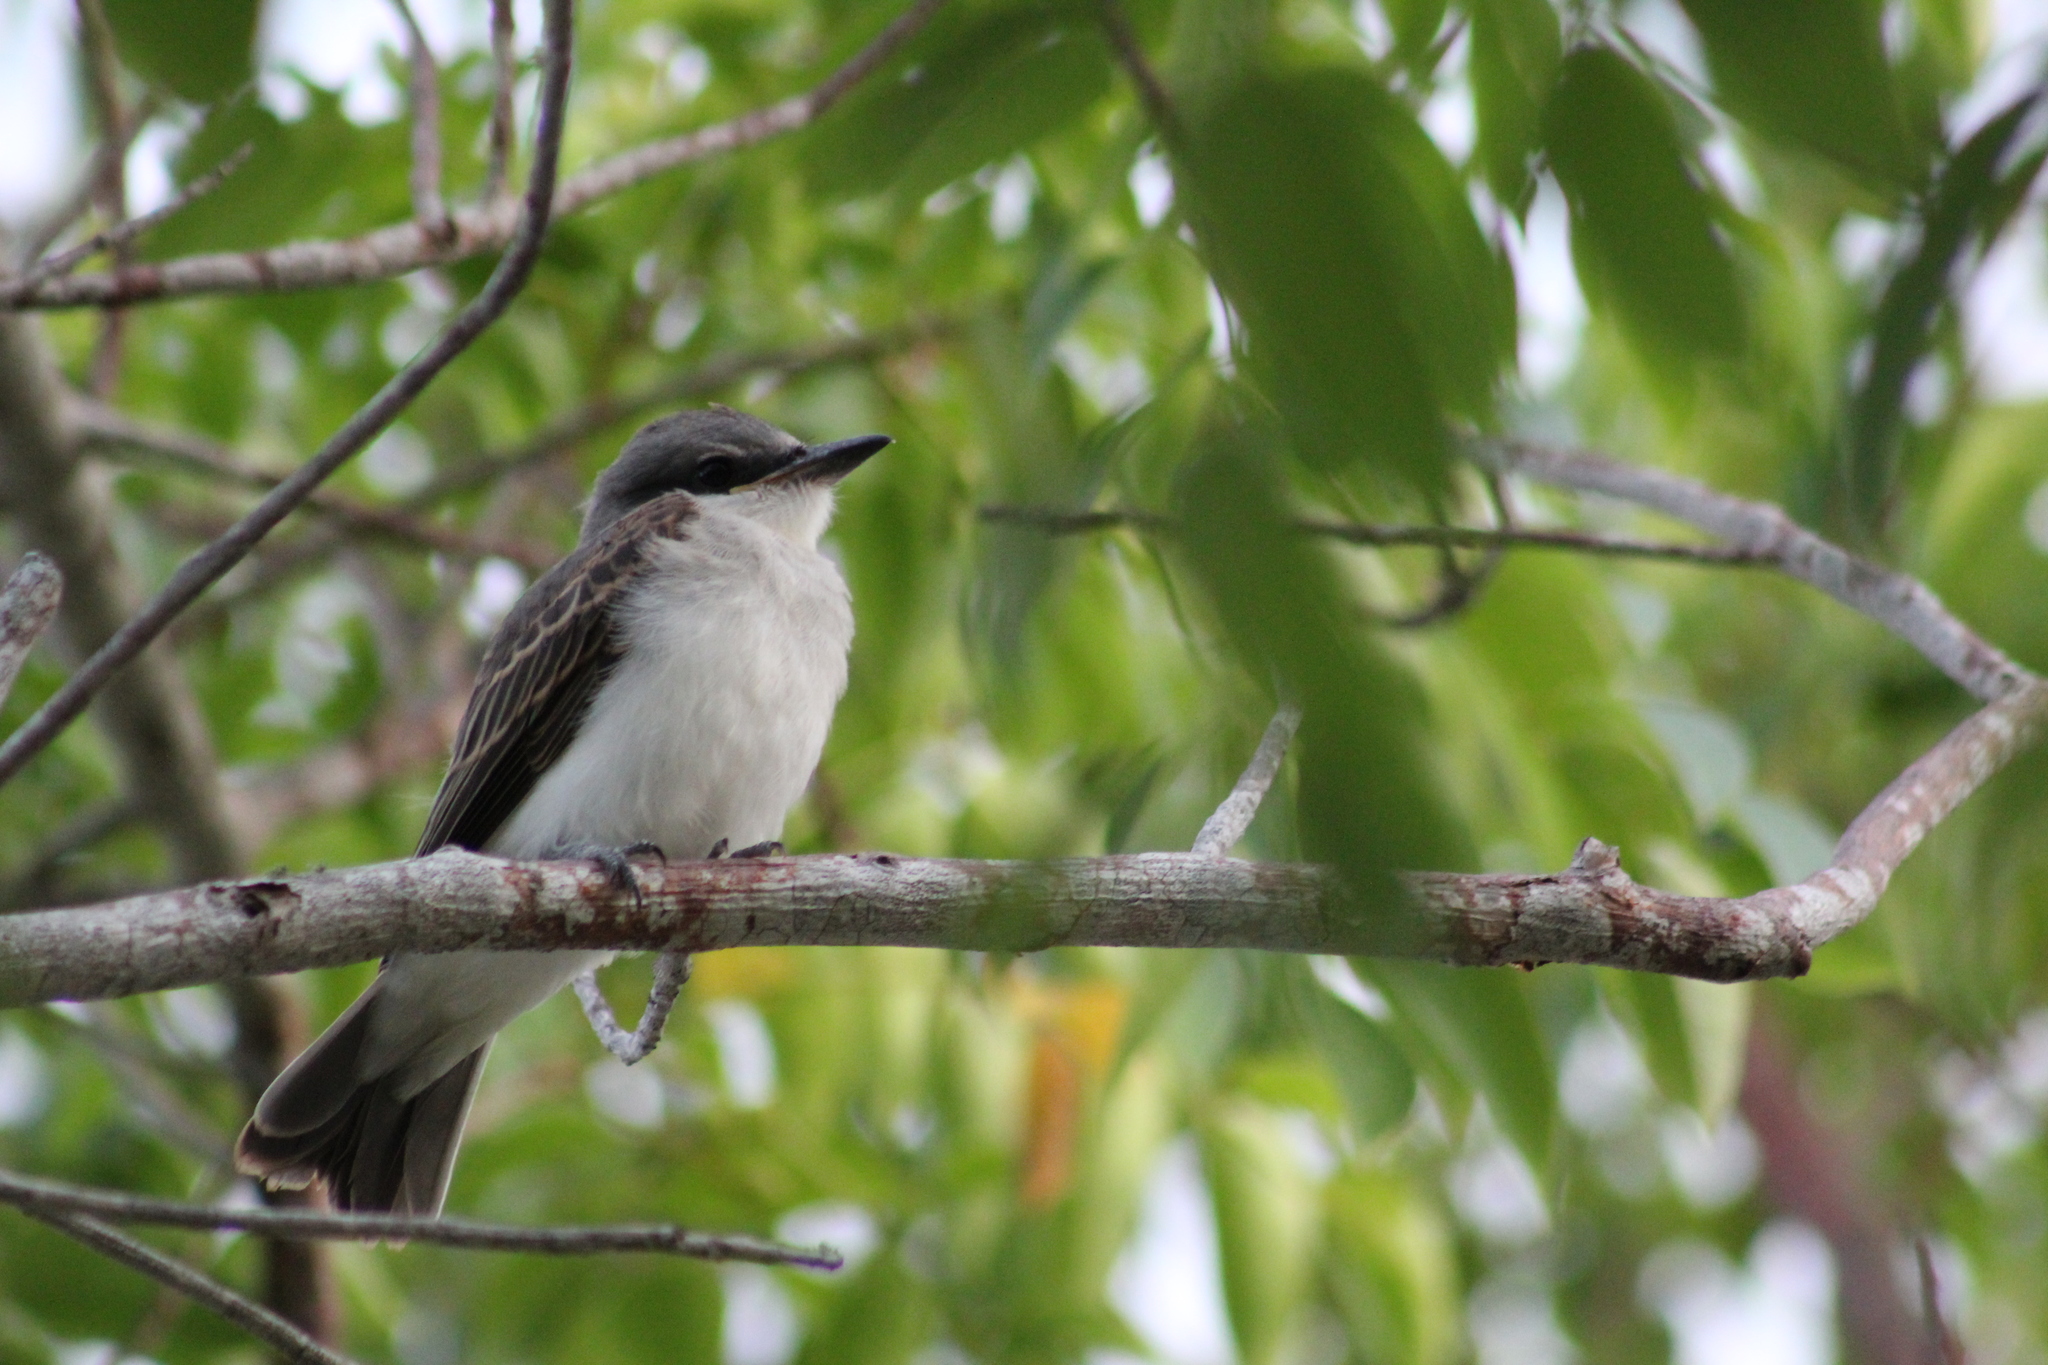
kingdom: Animalia
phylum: Chordata
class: Aves
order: Passeriformes
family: Tyrannidae
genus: Tyrannus
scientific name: Tyrannus dominicensis
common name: Gray kingbird
